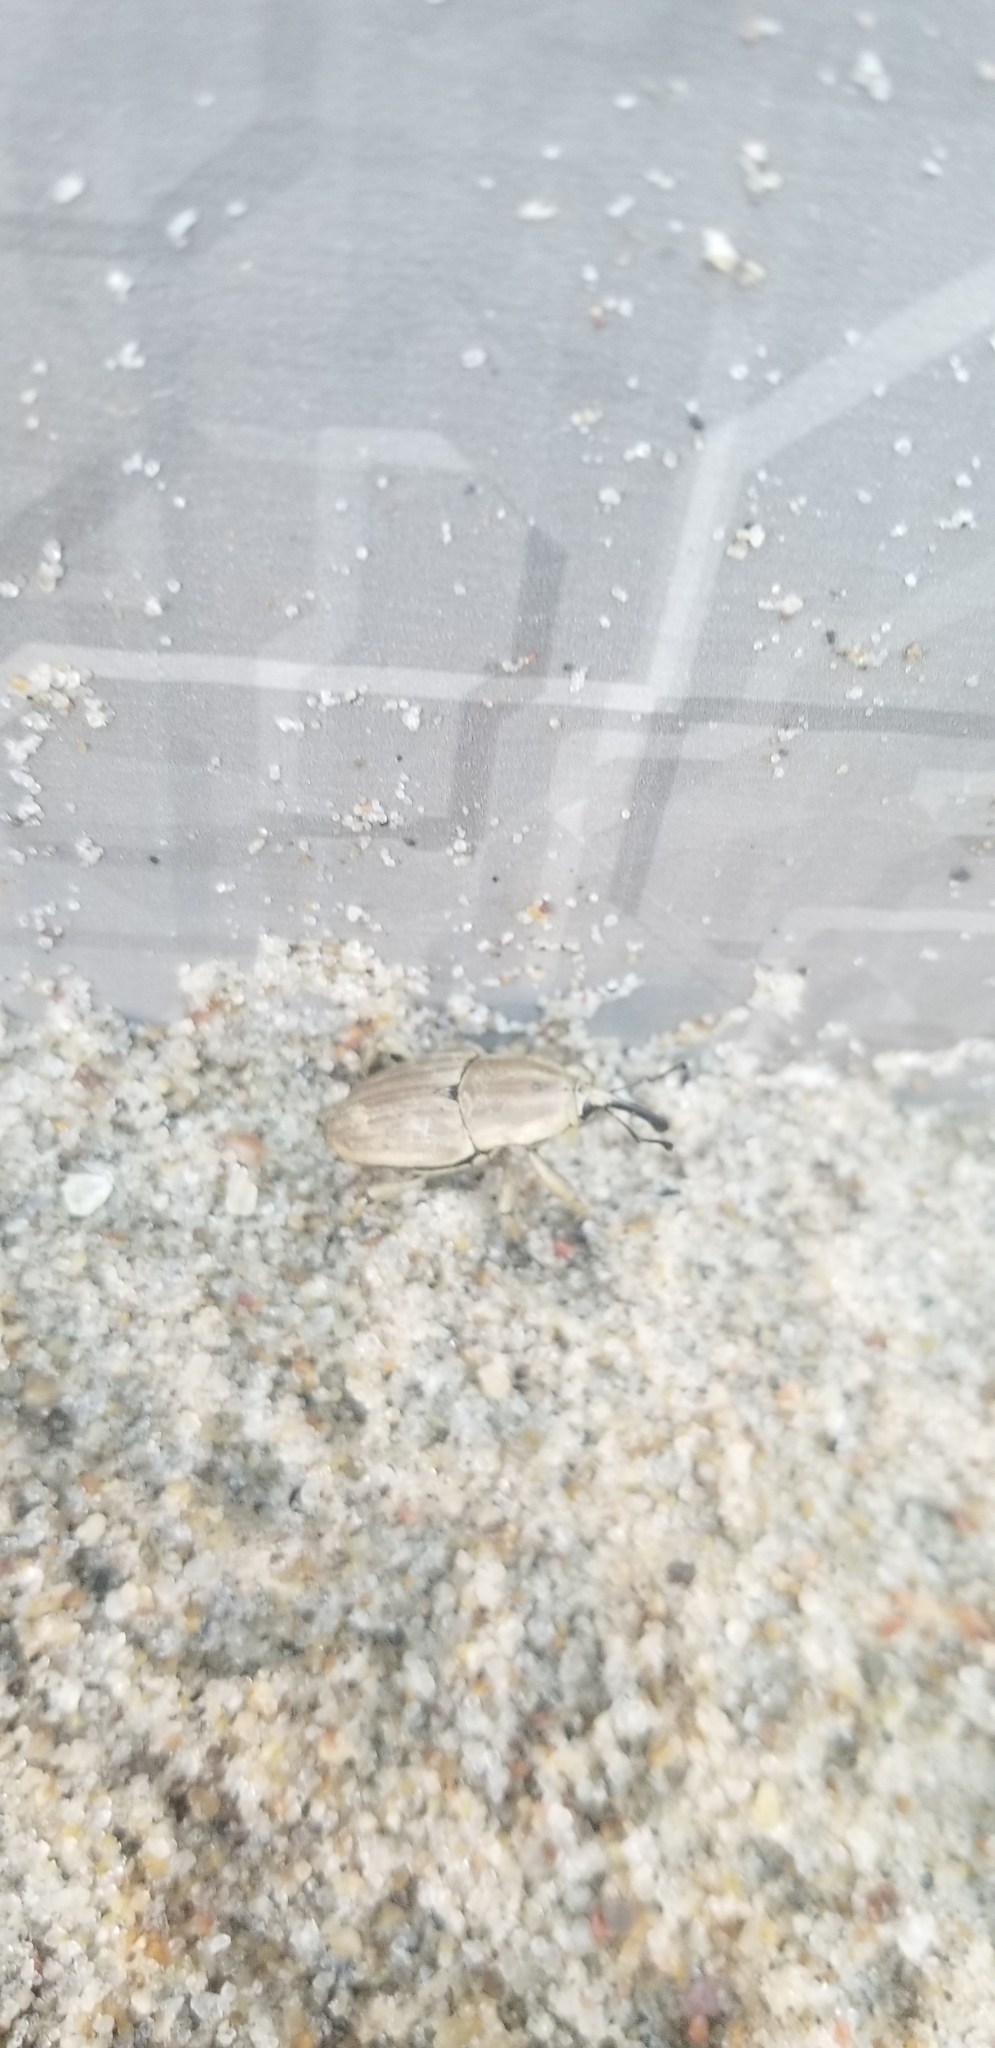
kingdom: Animalia
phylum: Arthropoda
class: Insecta
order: Coleoptera
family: Dryophthoridae
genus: Sphenophorus
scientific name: Sphenophorus aequalis
